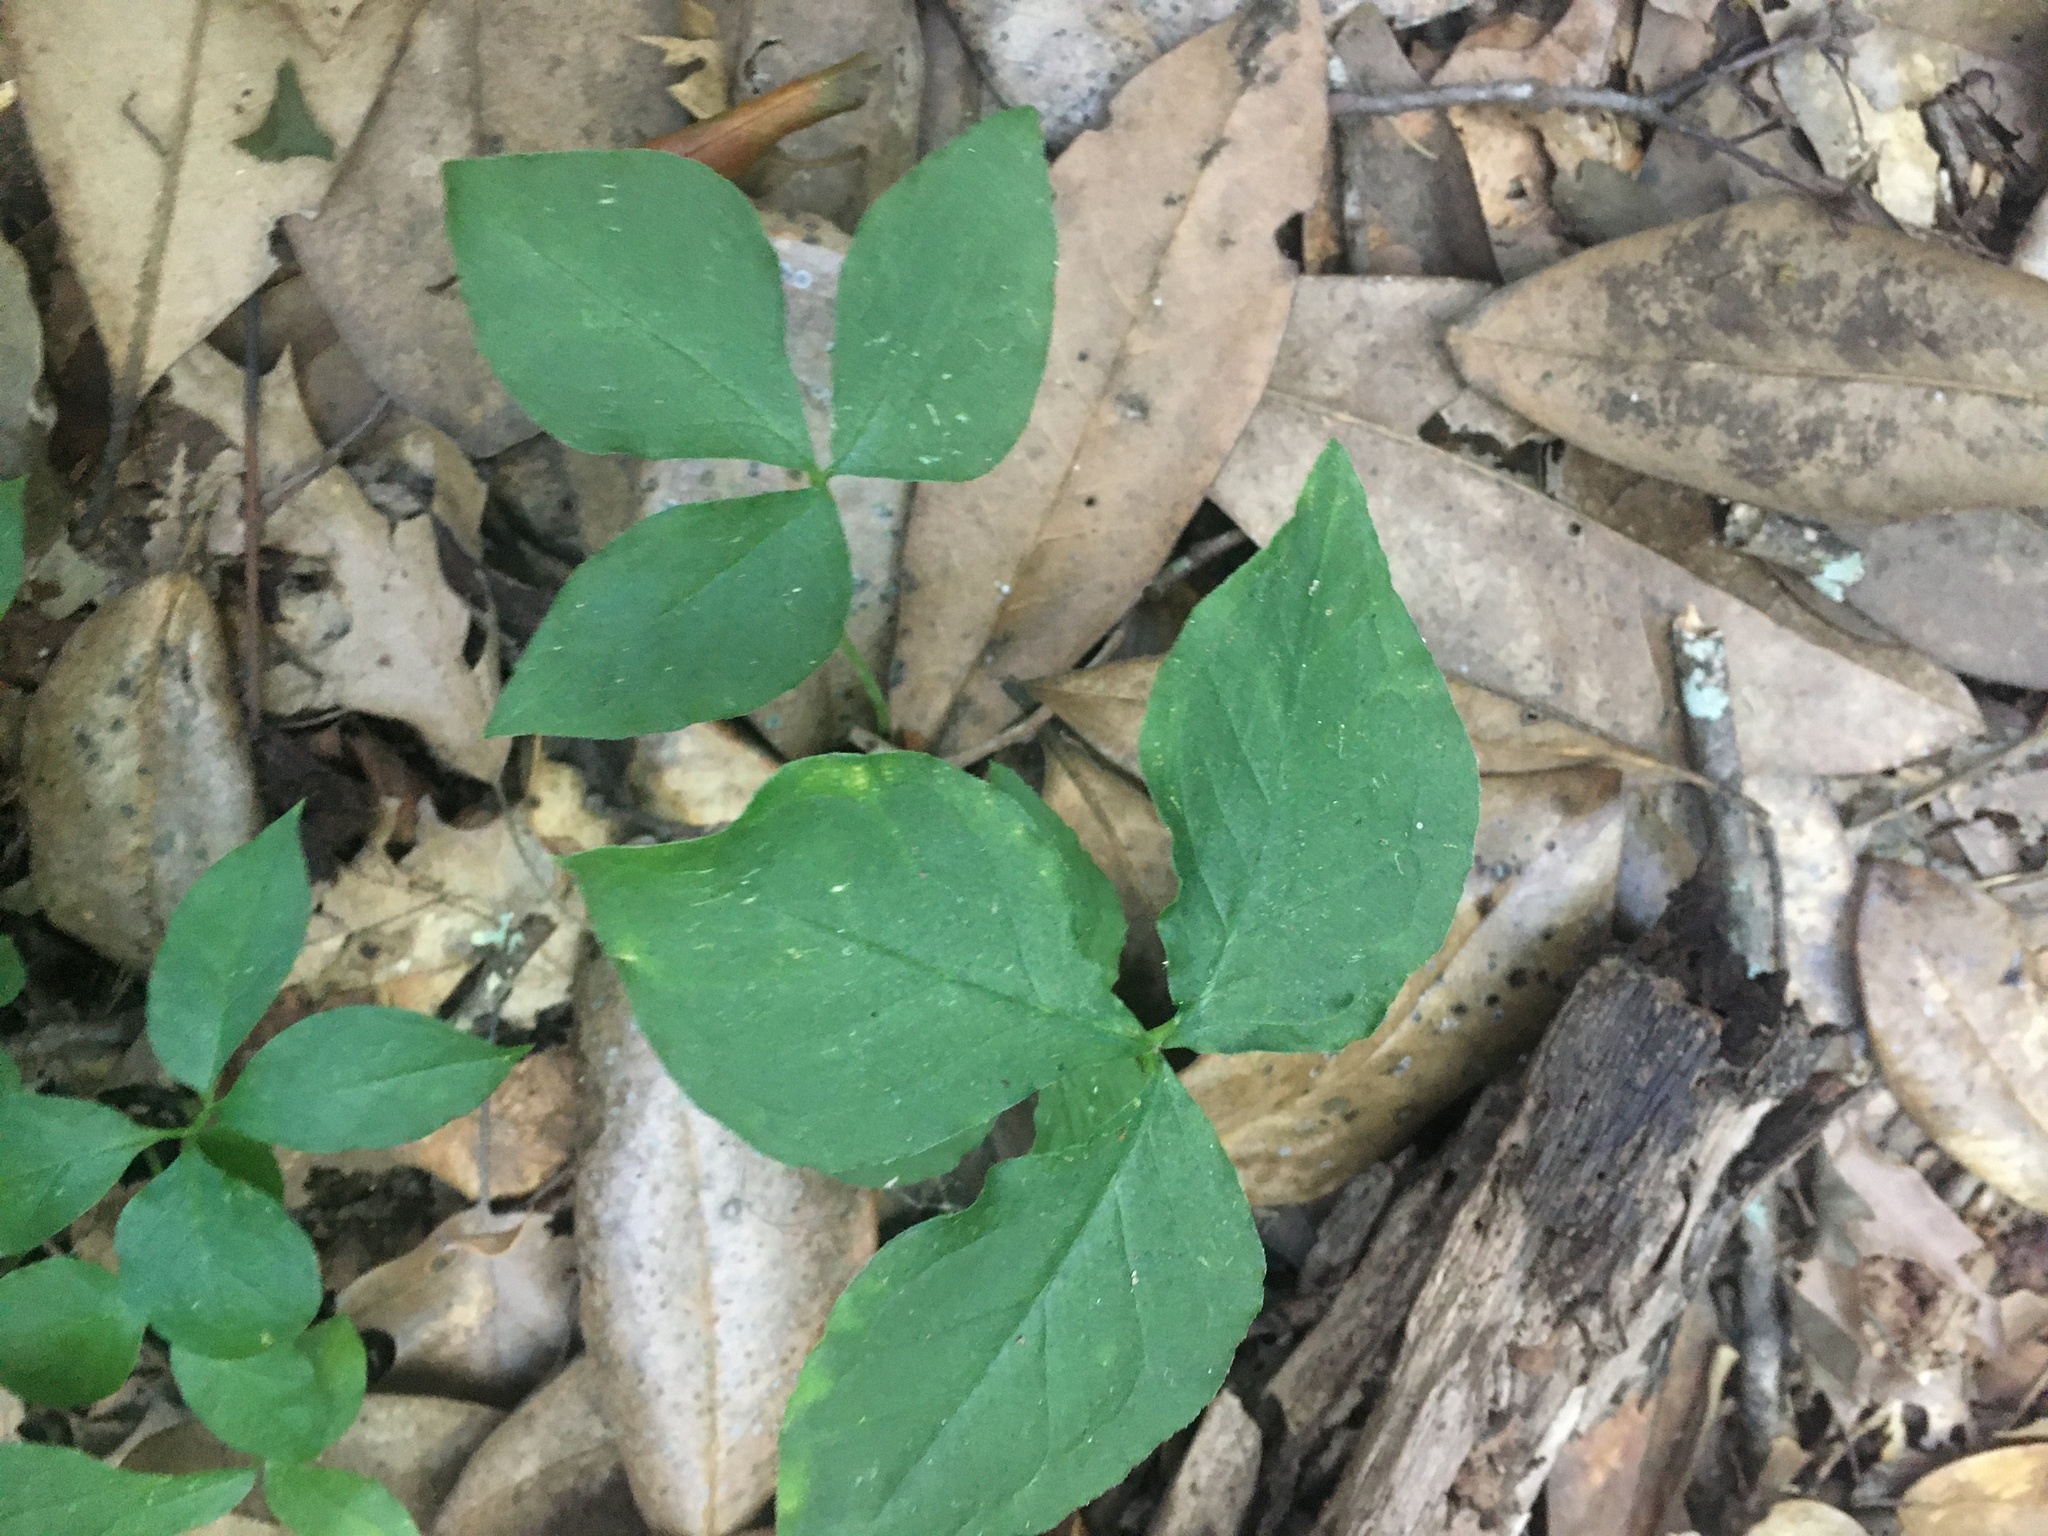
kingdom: Plantae
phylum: Tracheophyta
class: Liliopsida
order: Alismatales
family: Araceae
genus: Arisaema
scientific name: Arisaema triphyllum
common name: Jack-in-the-pulpit
